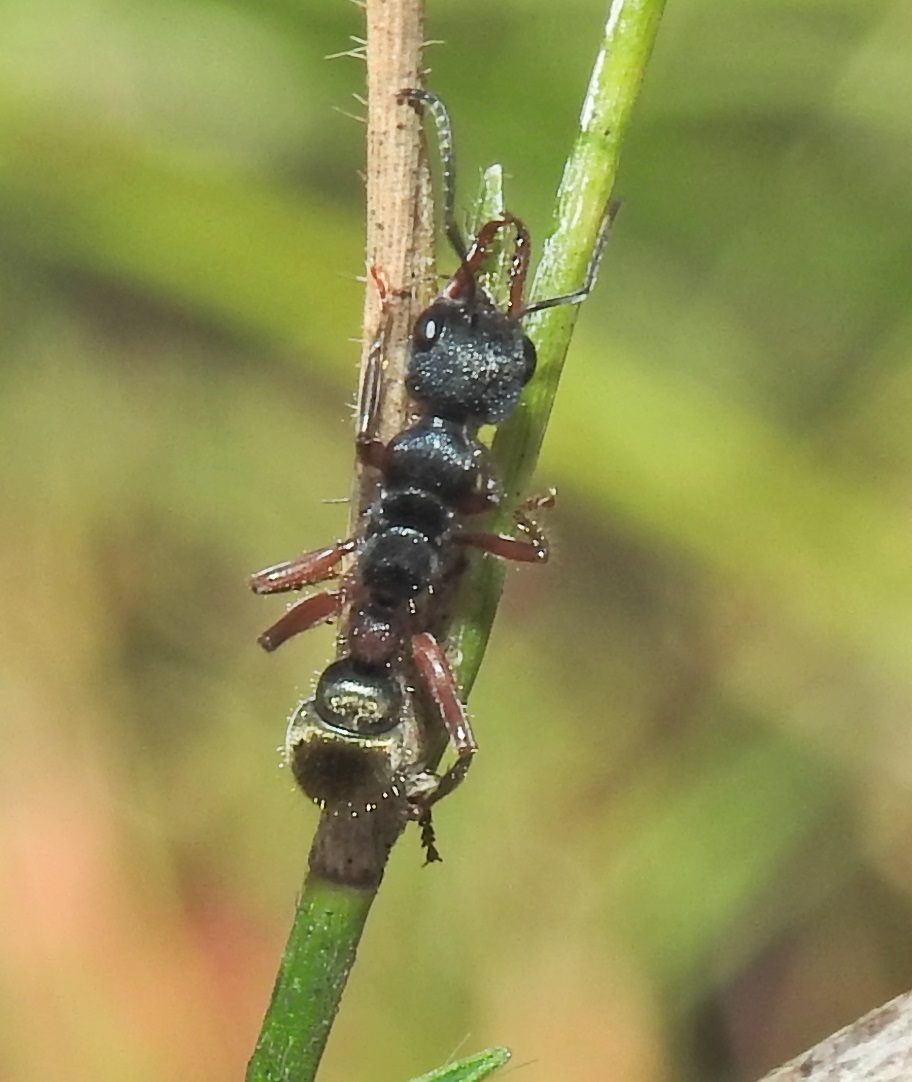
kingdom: Animalia
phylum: Arthropoda
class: Insecta
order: Hymenoptera
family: Formicidae
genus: Myrmecia
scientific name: Myrmecia chrysogaster
